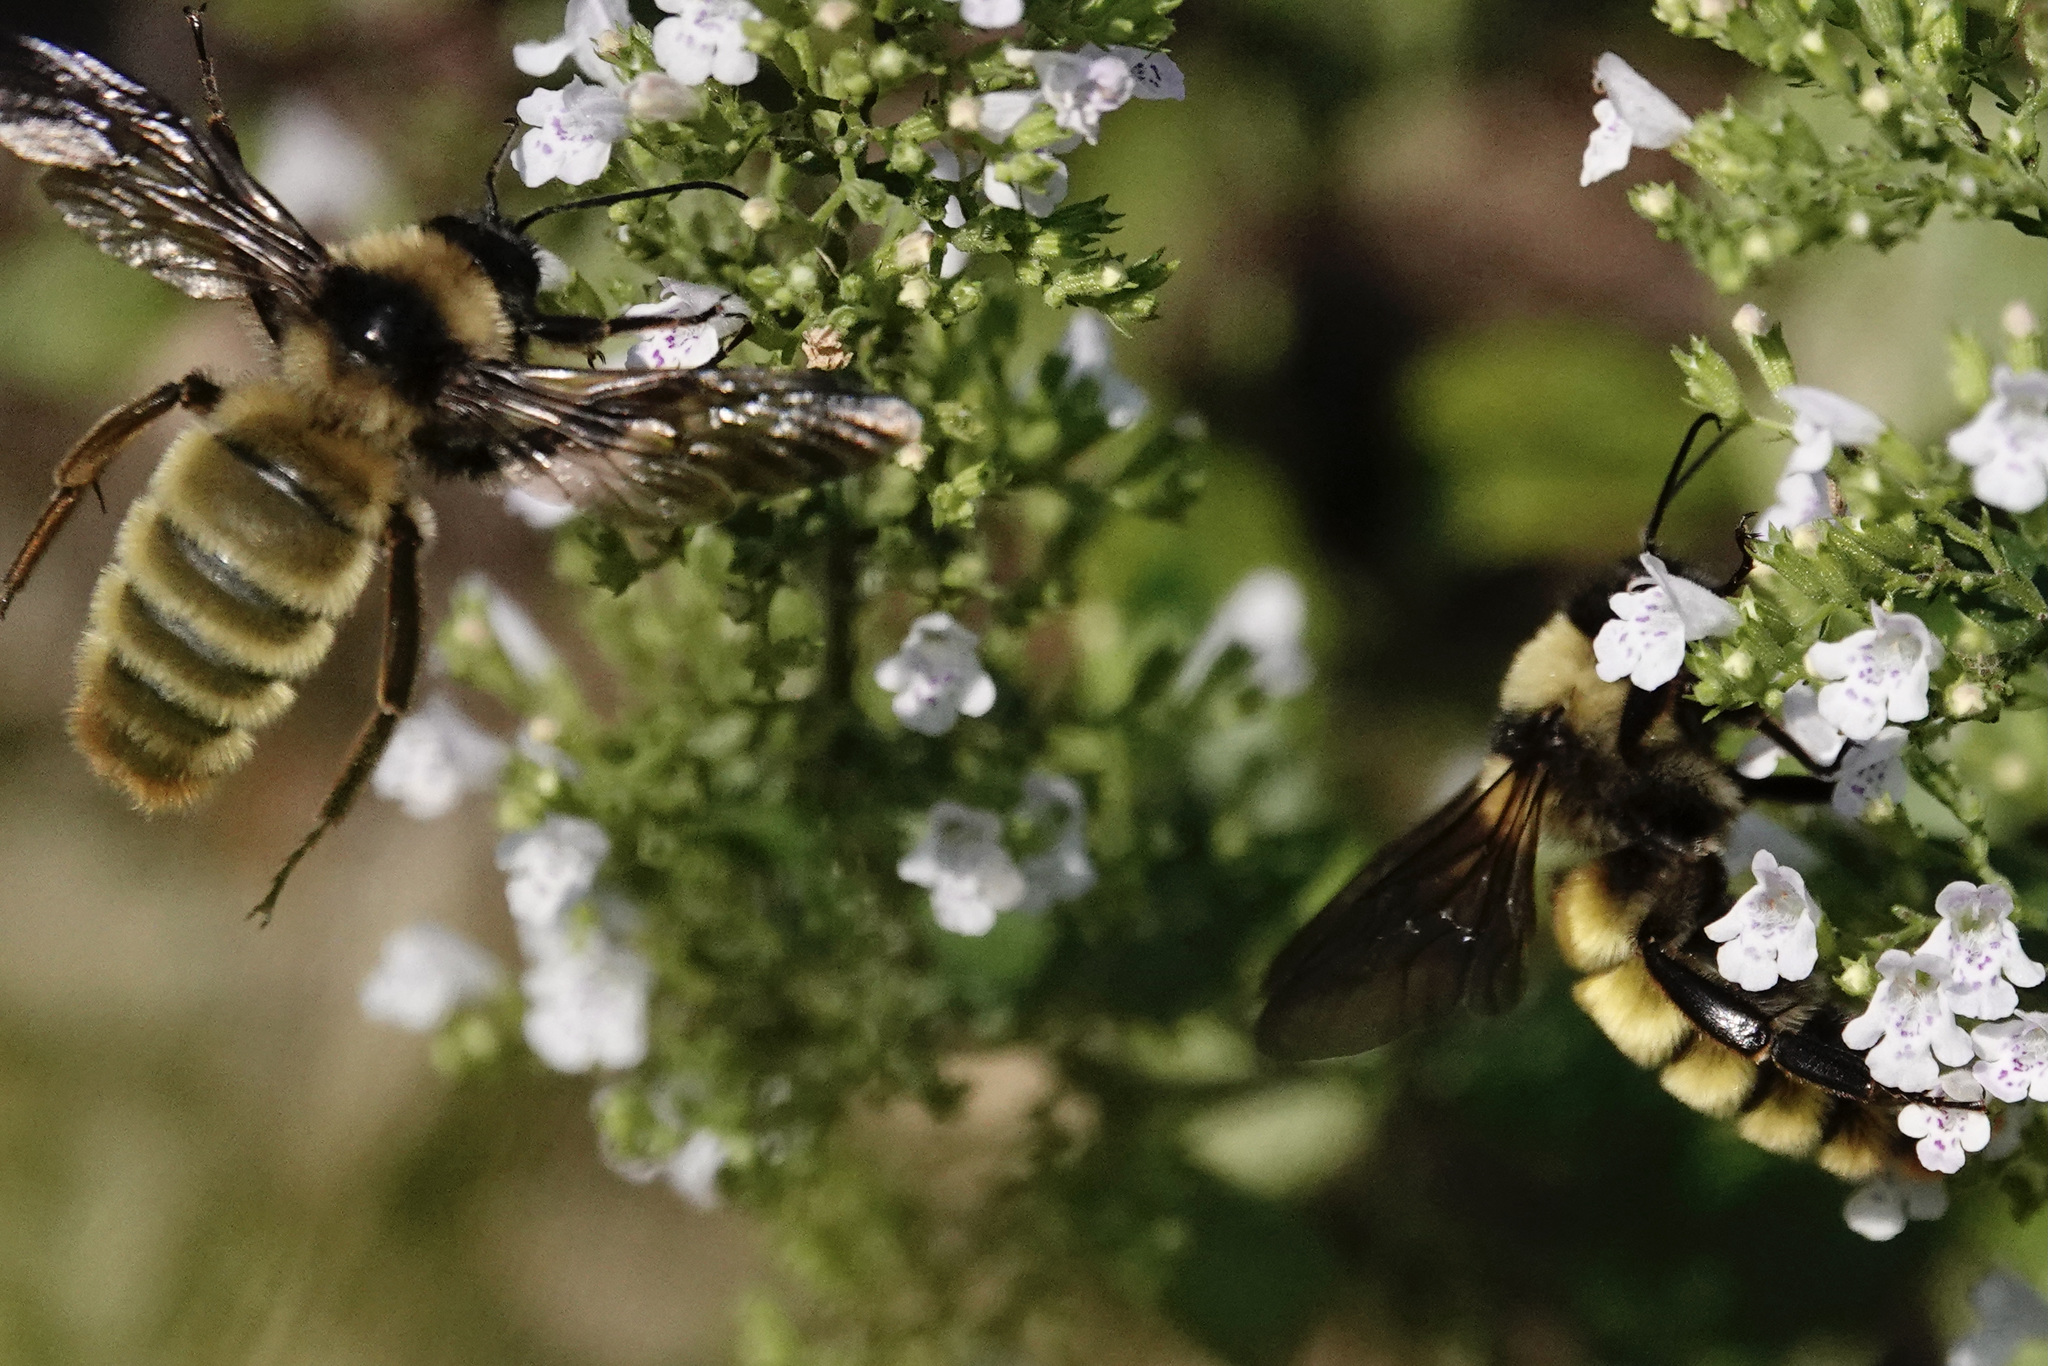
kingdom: Animalia
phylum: Arthropoda
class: Insecta
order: Hymenoptera
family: Apidae
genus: Bombus
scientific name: Bombus pensylvanicus
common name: Bumble bee
